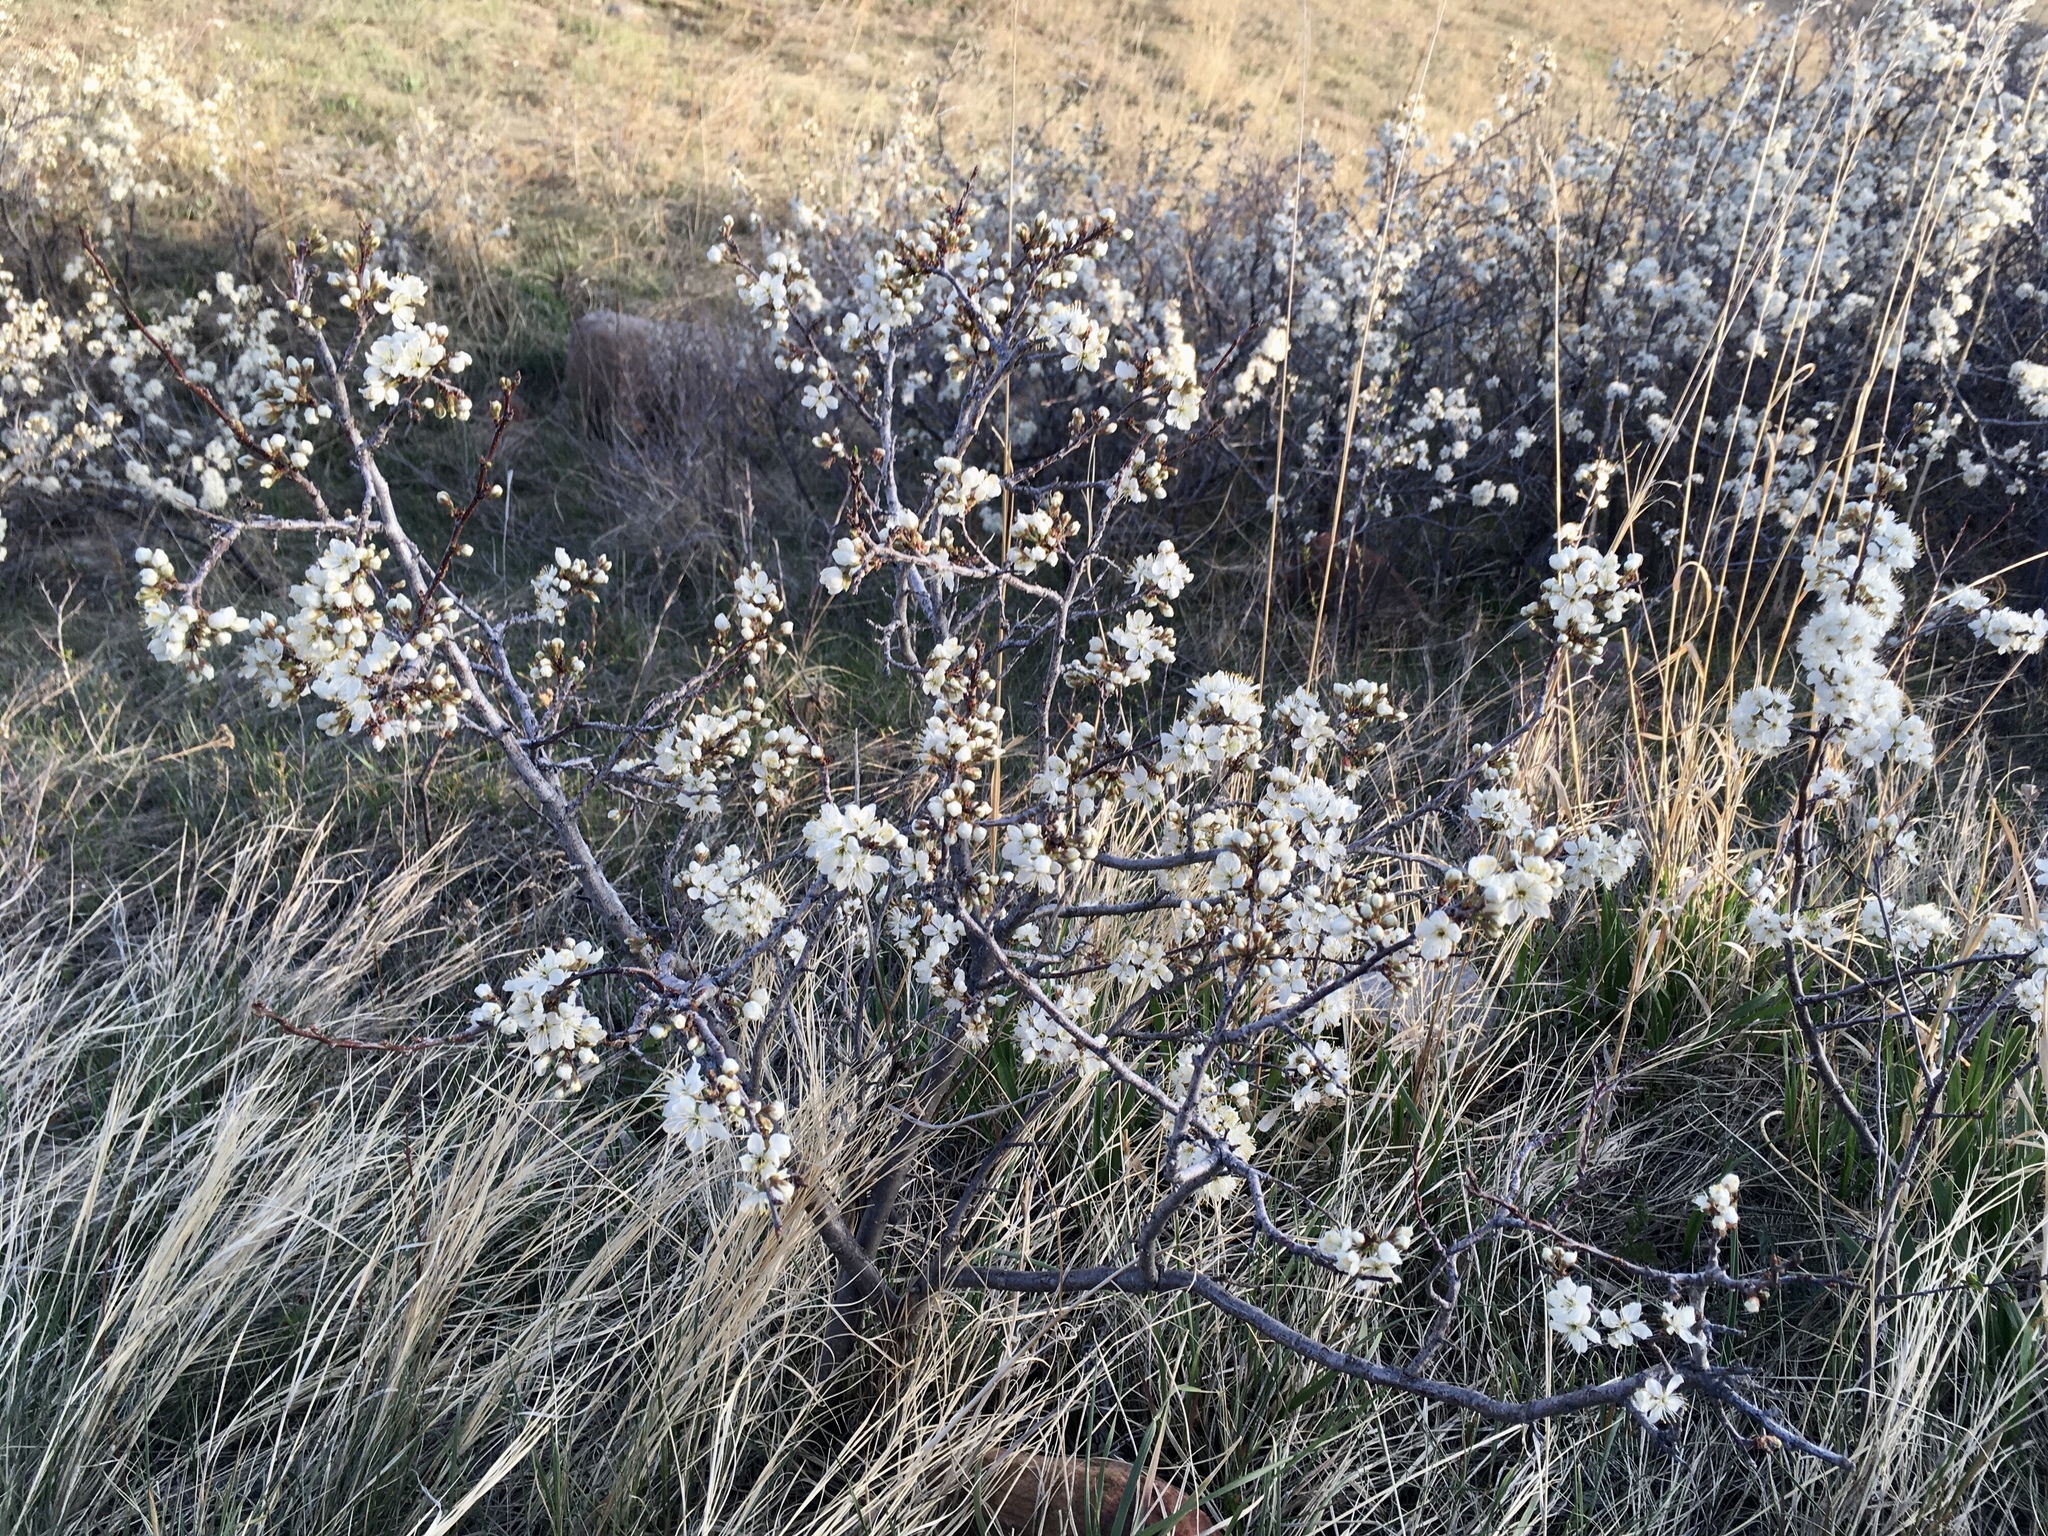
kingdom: Plantae
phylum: Tracheophyta
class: Magnoliopsida
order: Rosales
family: Rosaceae
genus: Prunus
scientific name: Prunus americana
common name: American plum
